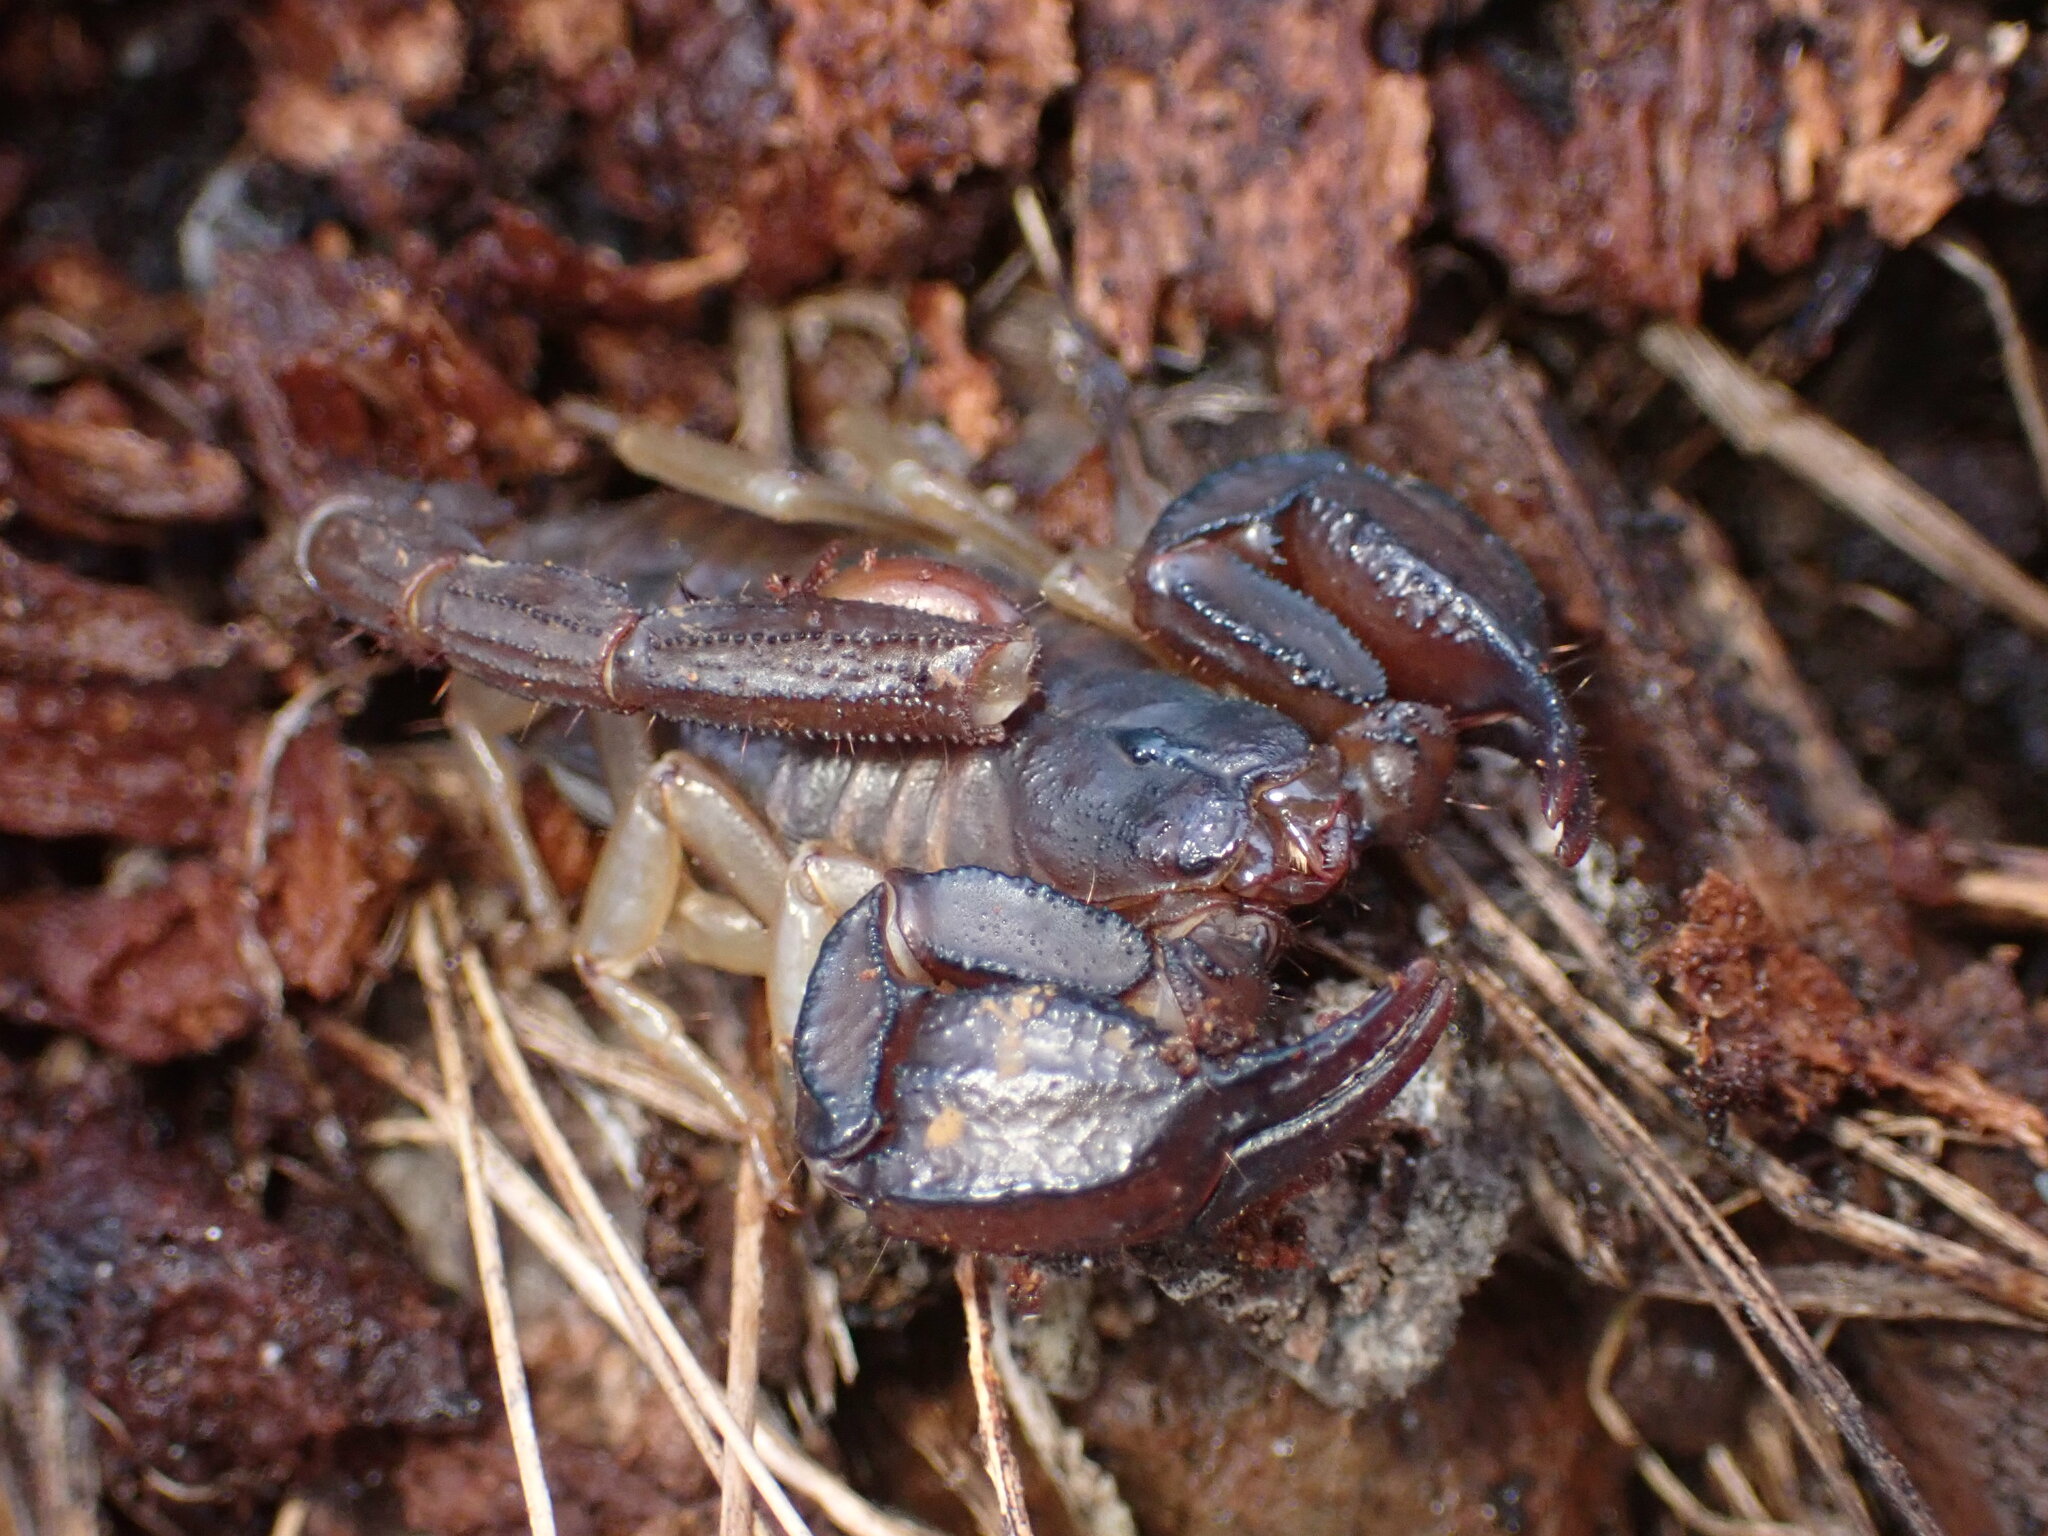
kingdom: Animalia
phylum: Arthropoda
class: Arachnida
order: Scorpiones
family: Chactidae
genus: Uroctonus
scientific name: Uroctonus mordax
